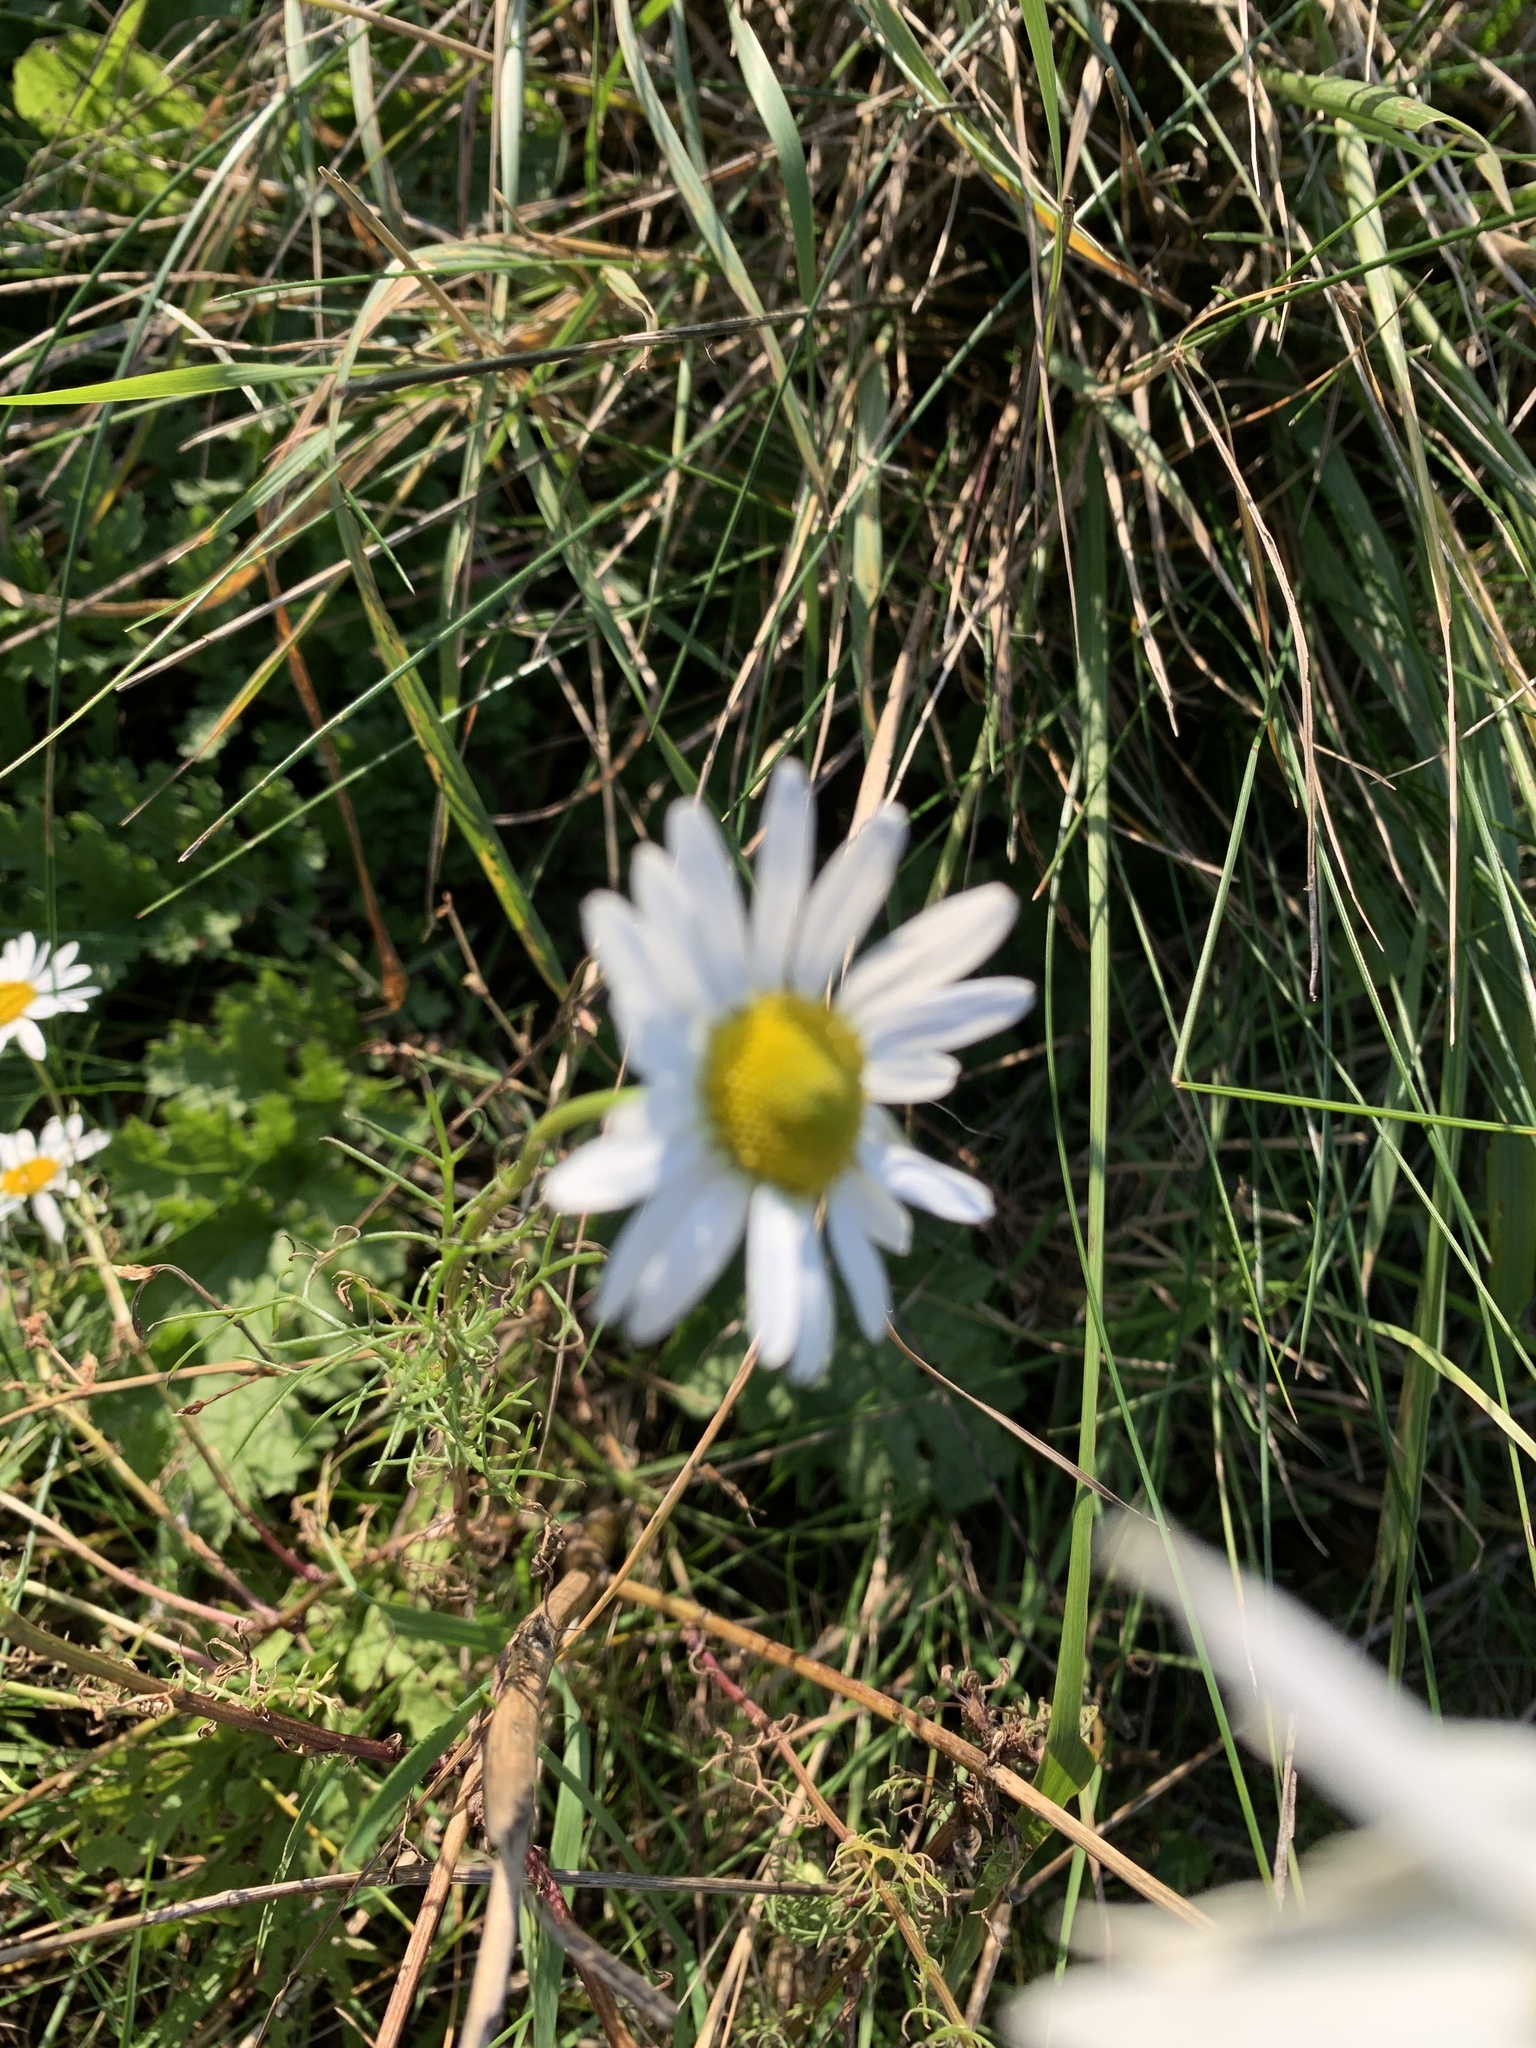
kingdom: Plantae
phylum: Tracheophyta
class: Magnoliopsida
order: Asterales
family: Asteraceae
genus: Tripleurospermum
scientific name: Tripleurospermum inodorum
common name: Scentless mayweed
